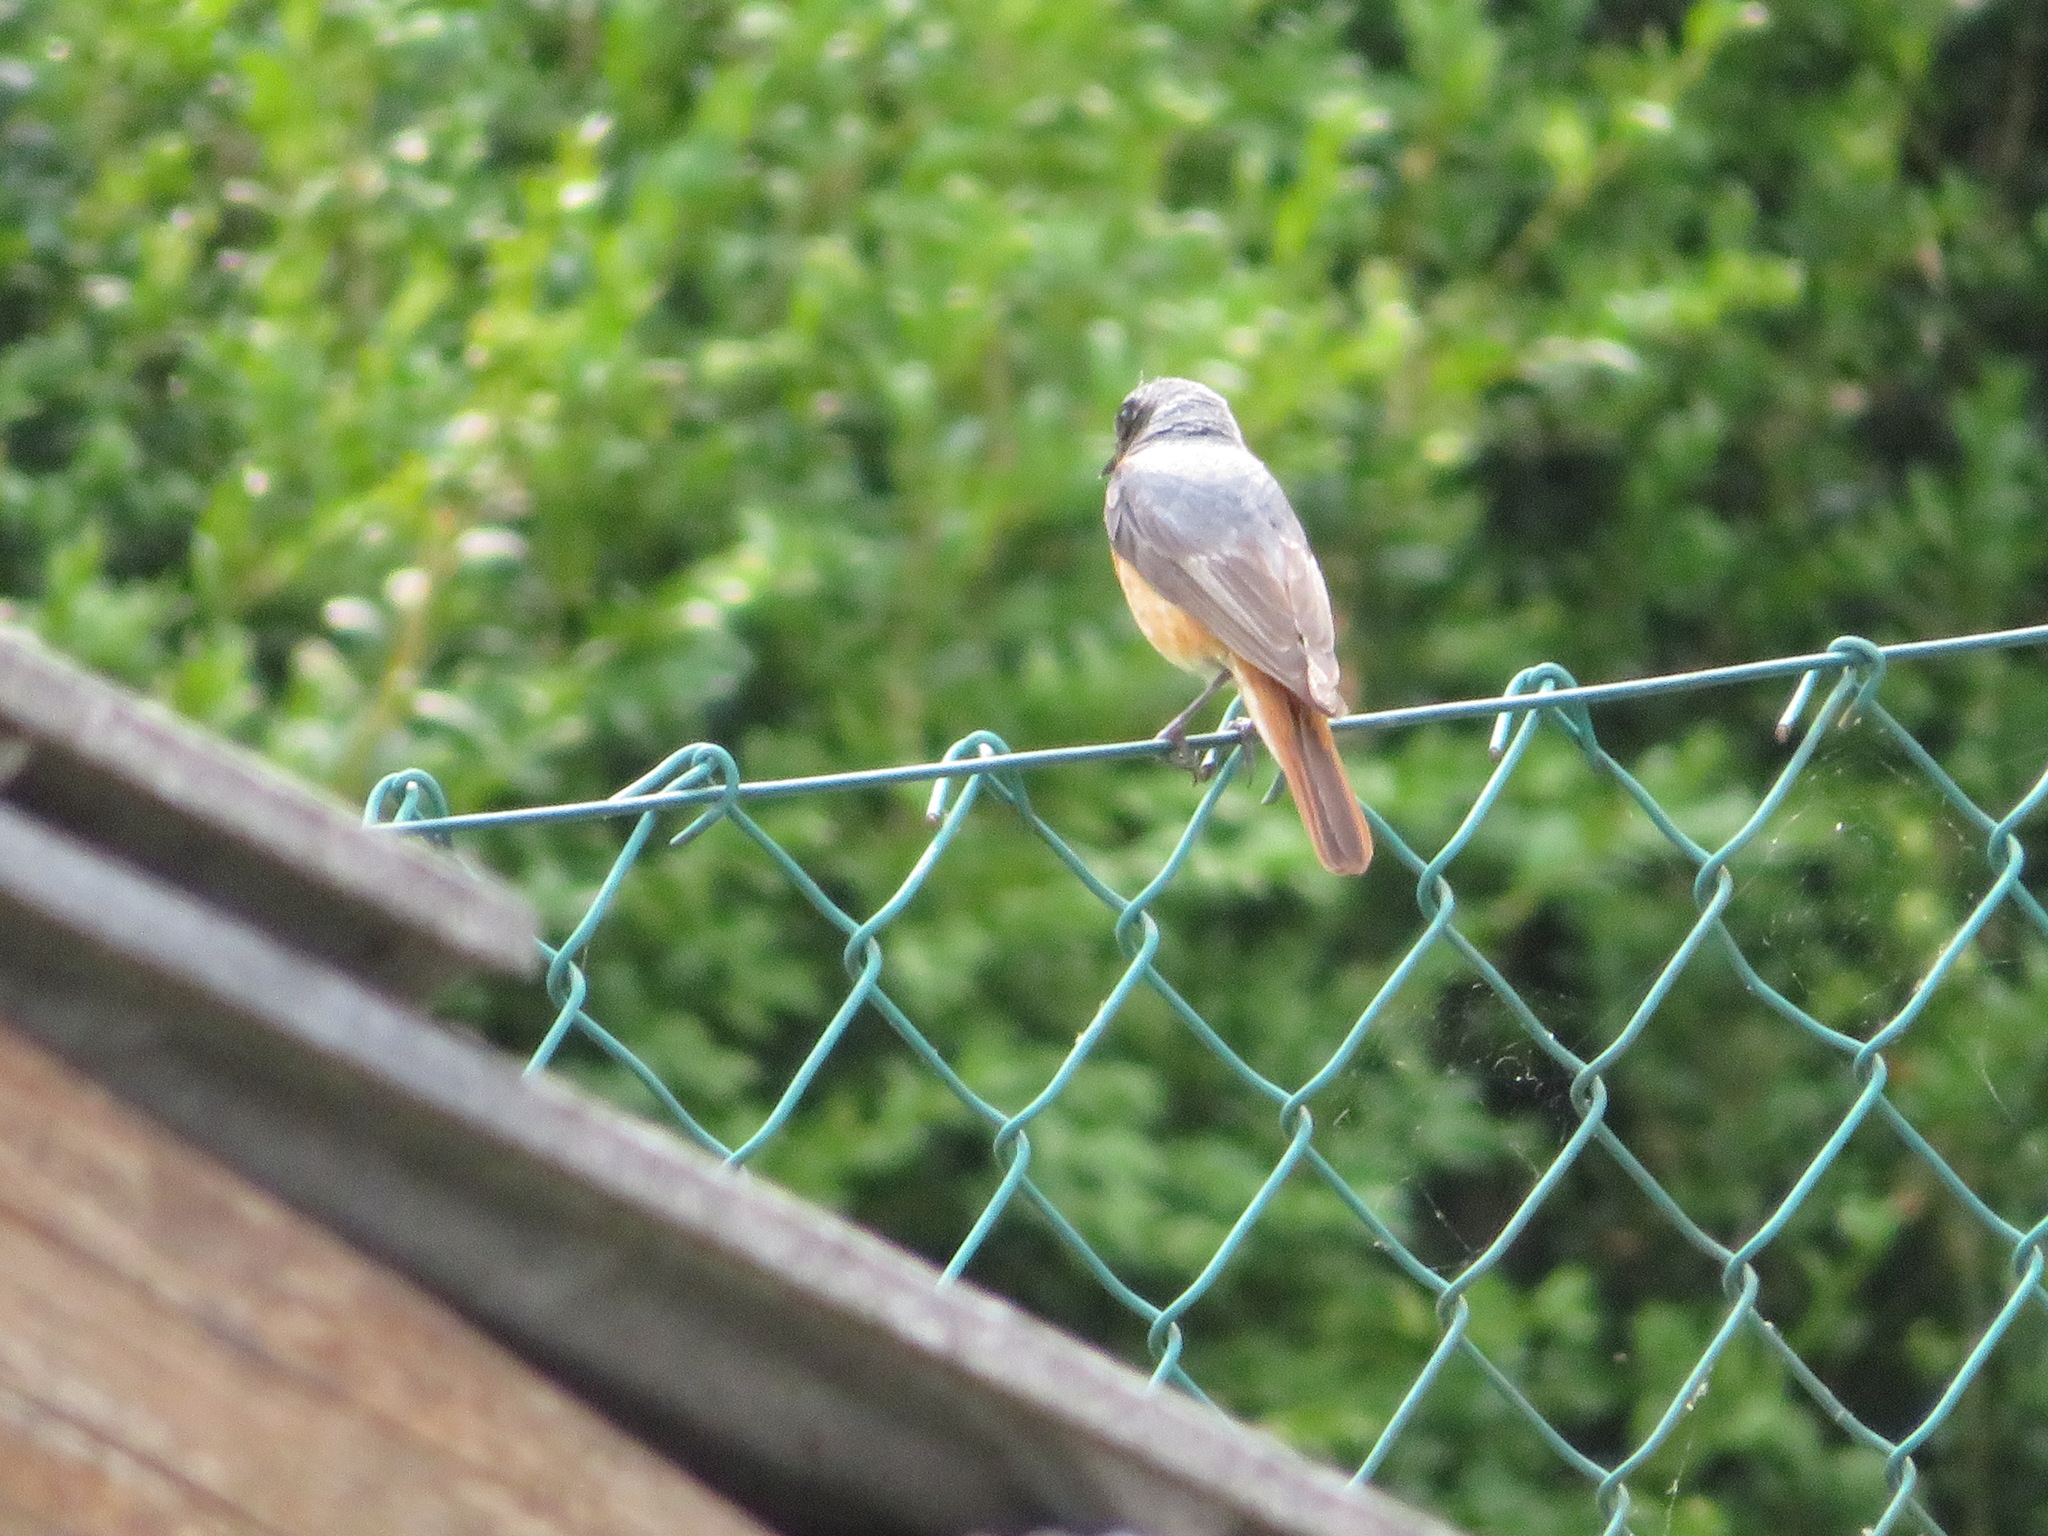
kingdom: Animalia
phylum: Chordata
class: Aves
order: Passeriformes
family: Muscicapidae
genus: Phoenicurus
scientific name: Phoenicurus phoenicurus
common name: Common redstart
